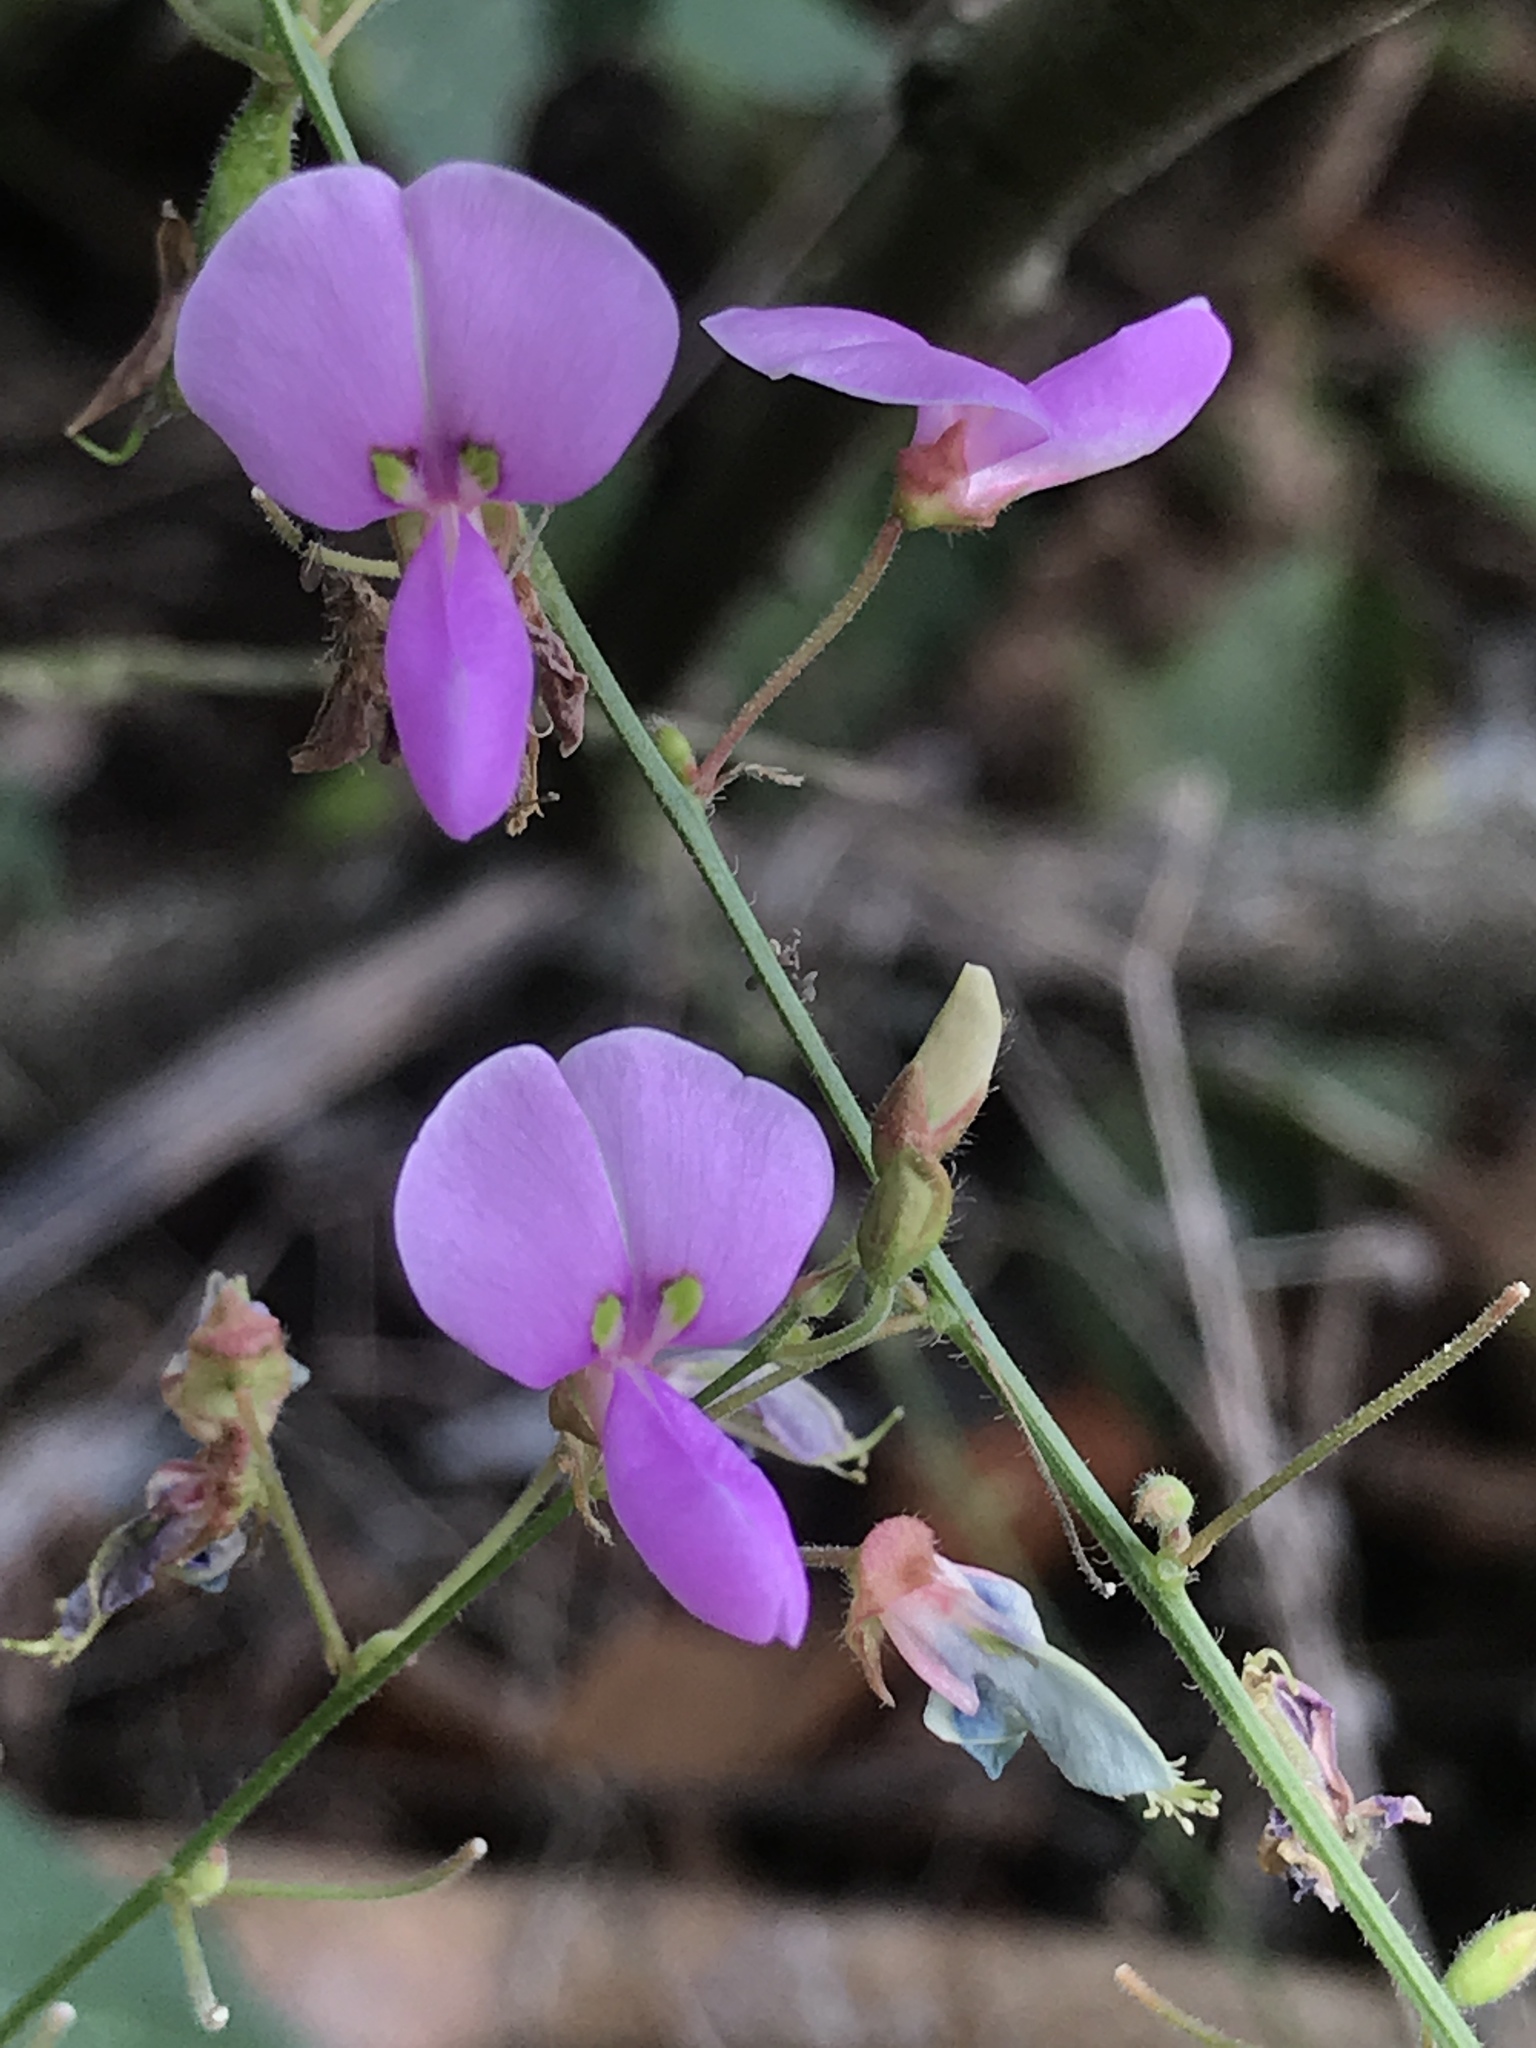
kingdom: Plantae
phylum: Tracheophyta
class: Magnoliopsida
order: Fabales
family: Fabaceae
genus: Desmodium
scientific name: Desmodium perplexum
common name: Perplexed tick trefoil
